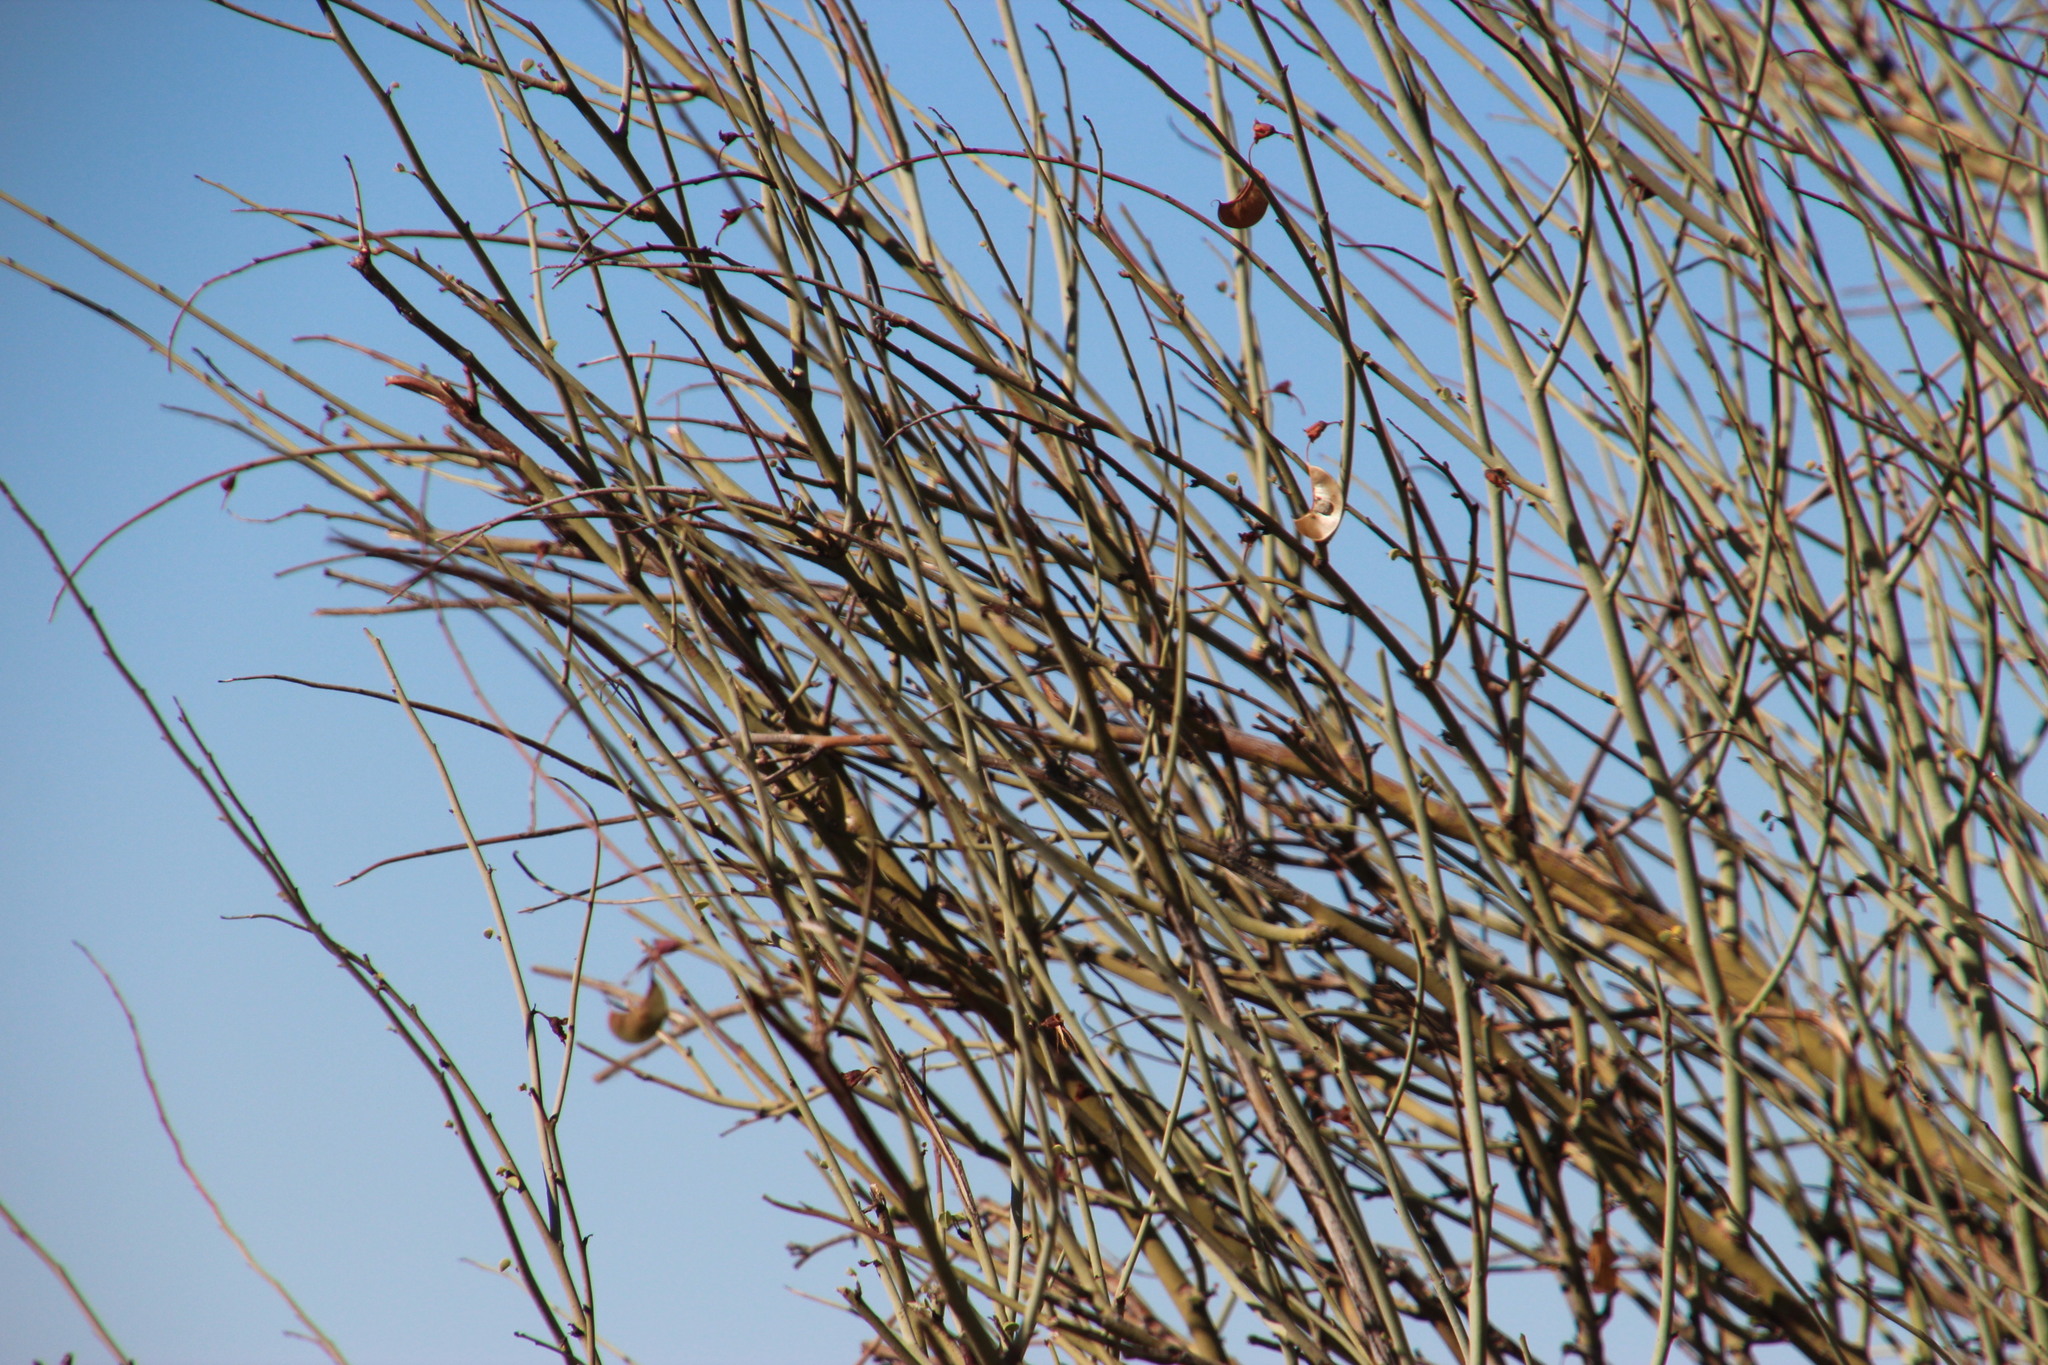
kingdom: Plantae
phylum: Tracheophyta
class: Magnoliopsida
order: Fabales
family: Fabaceae
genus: Adenolobus
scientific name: Adenolobus garipensis
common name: Butterfly-leaf
